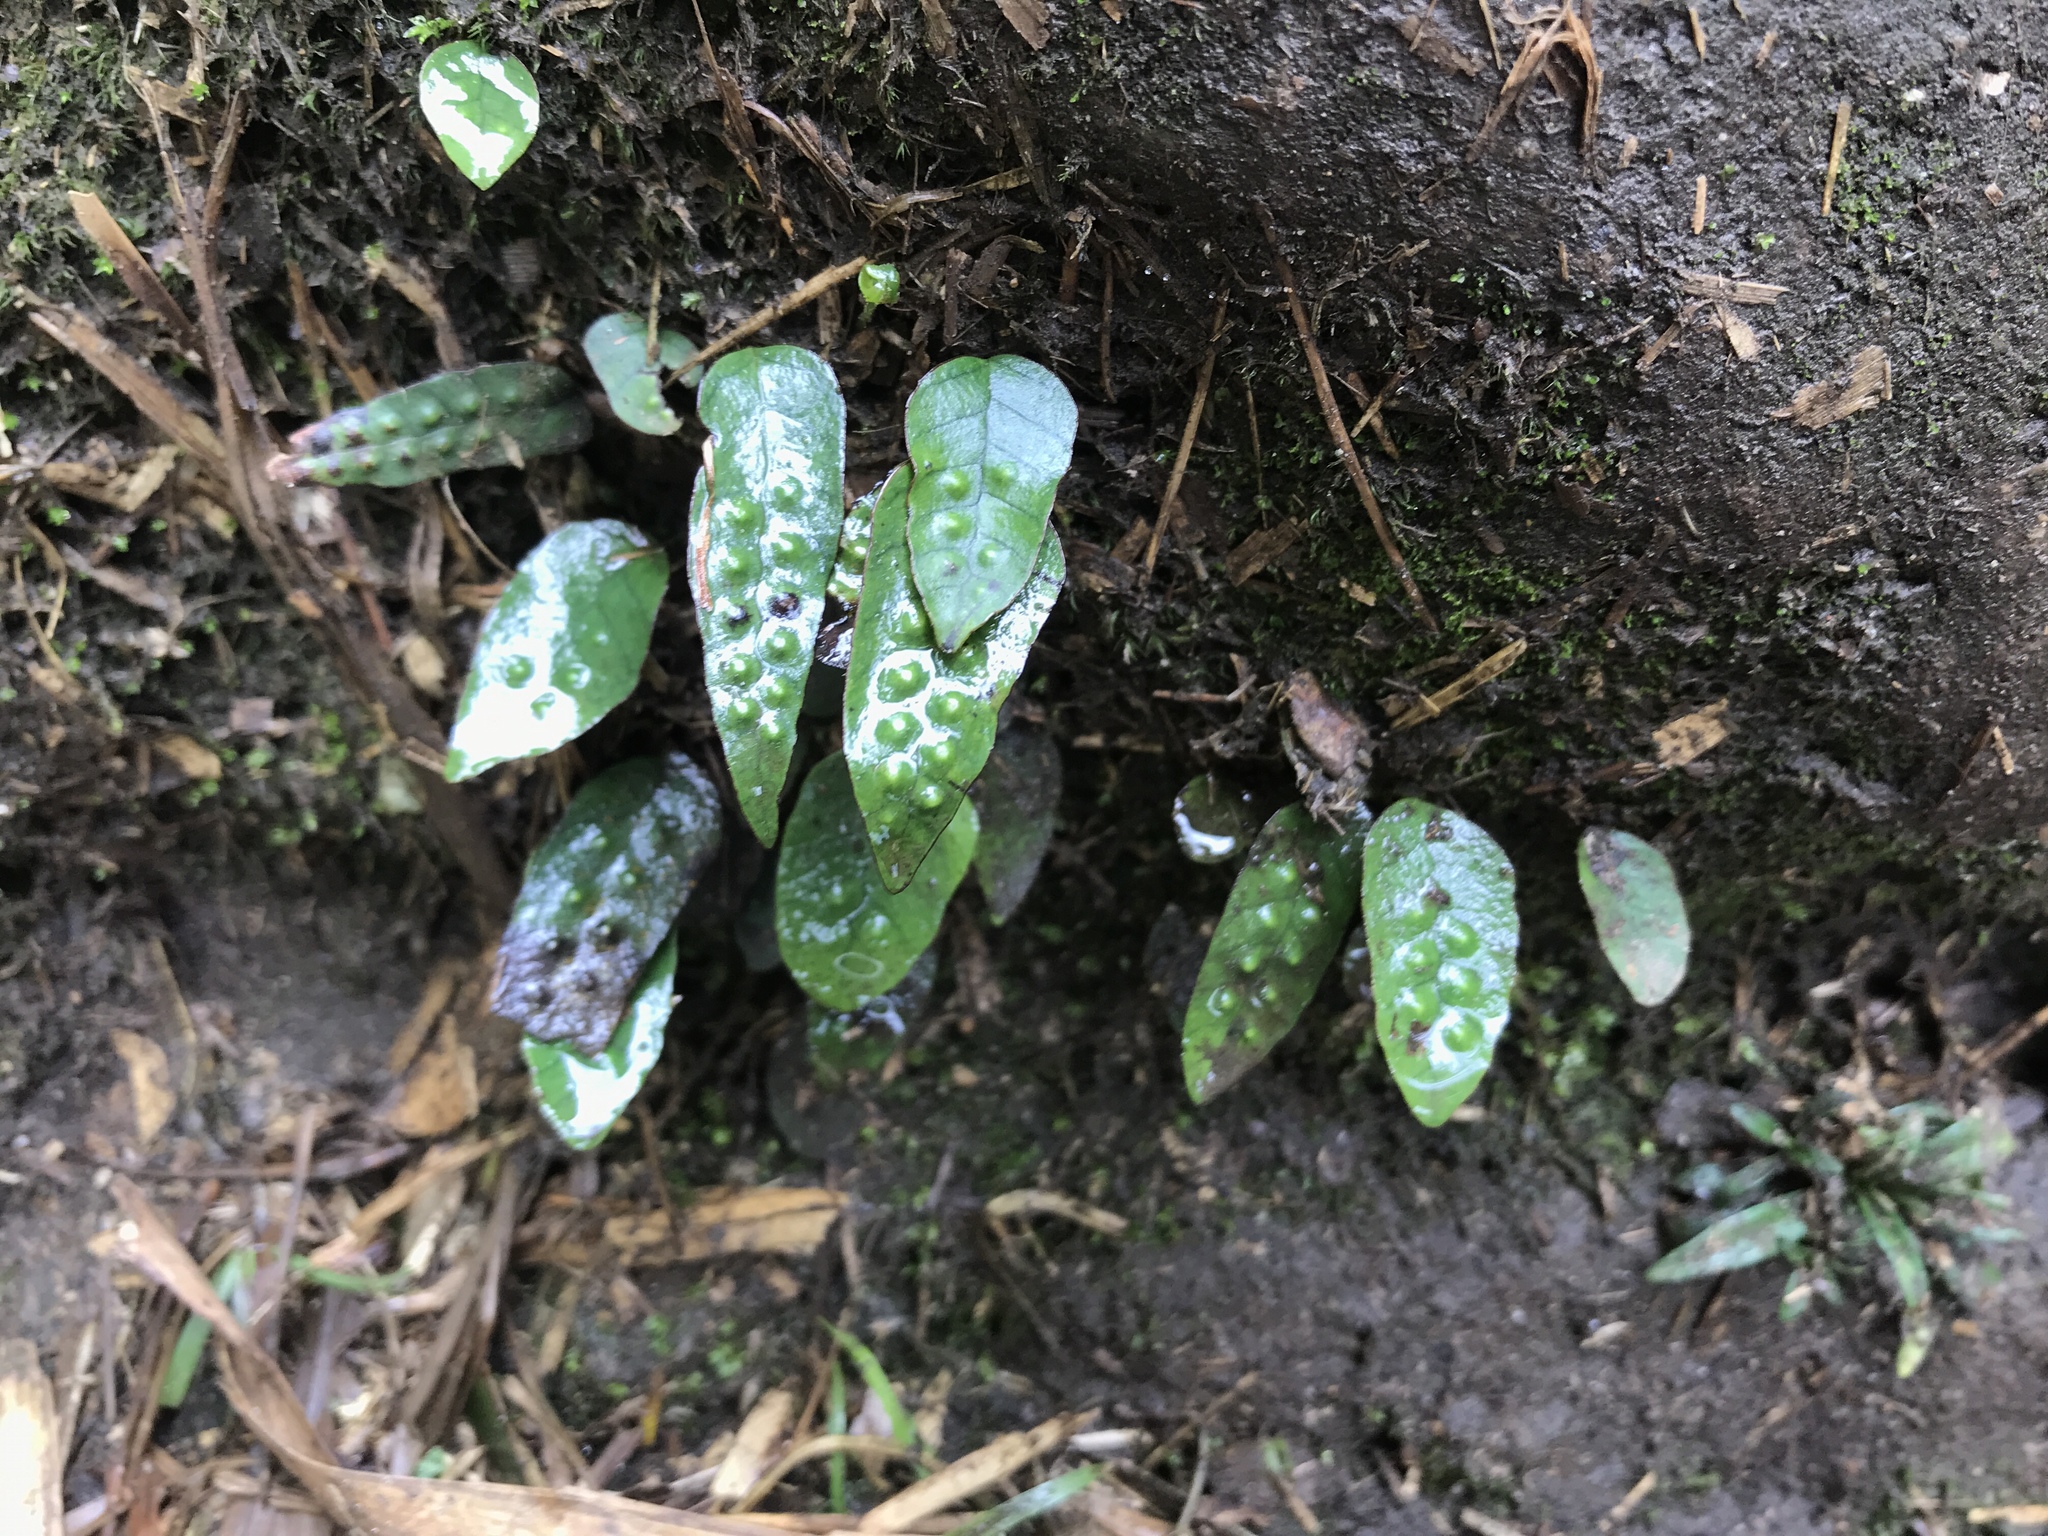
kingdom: Plantae
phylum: Tracheophyta
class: Polypodiopsida
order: Polypodiales
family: Polypodiaceae
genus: Selliguea
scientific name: Selliguea hastata
